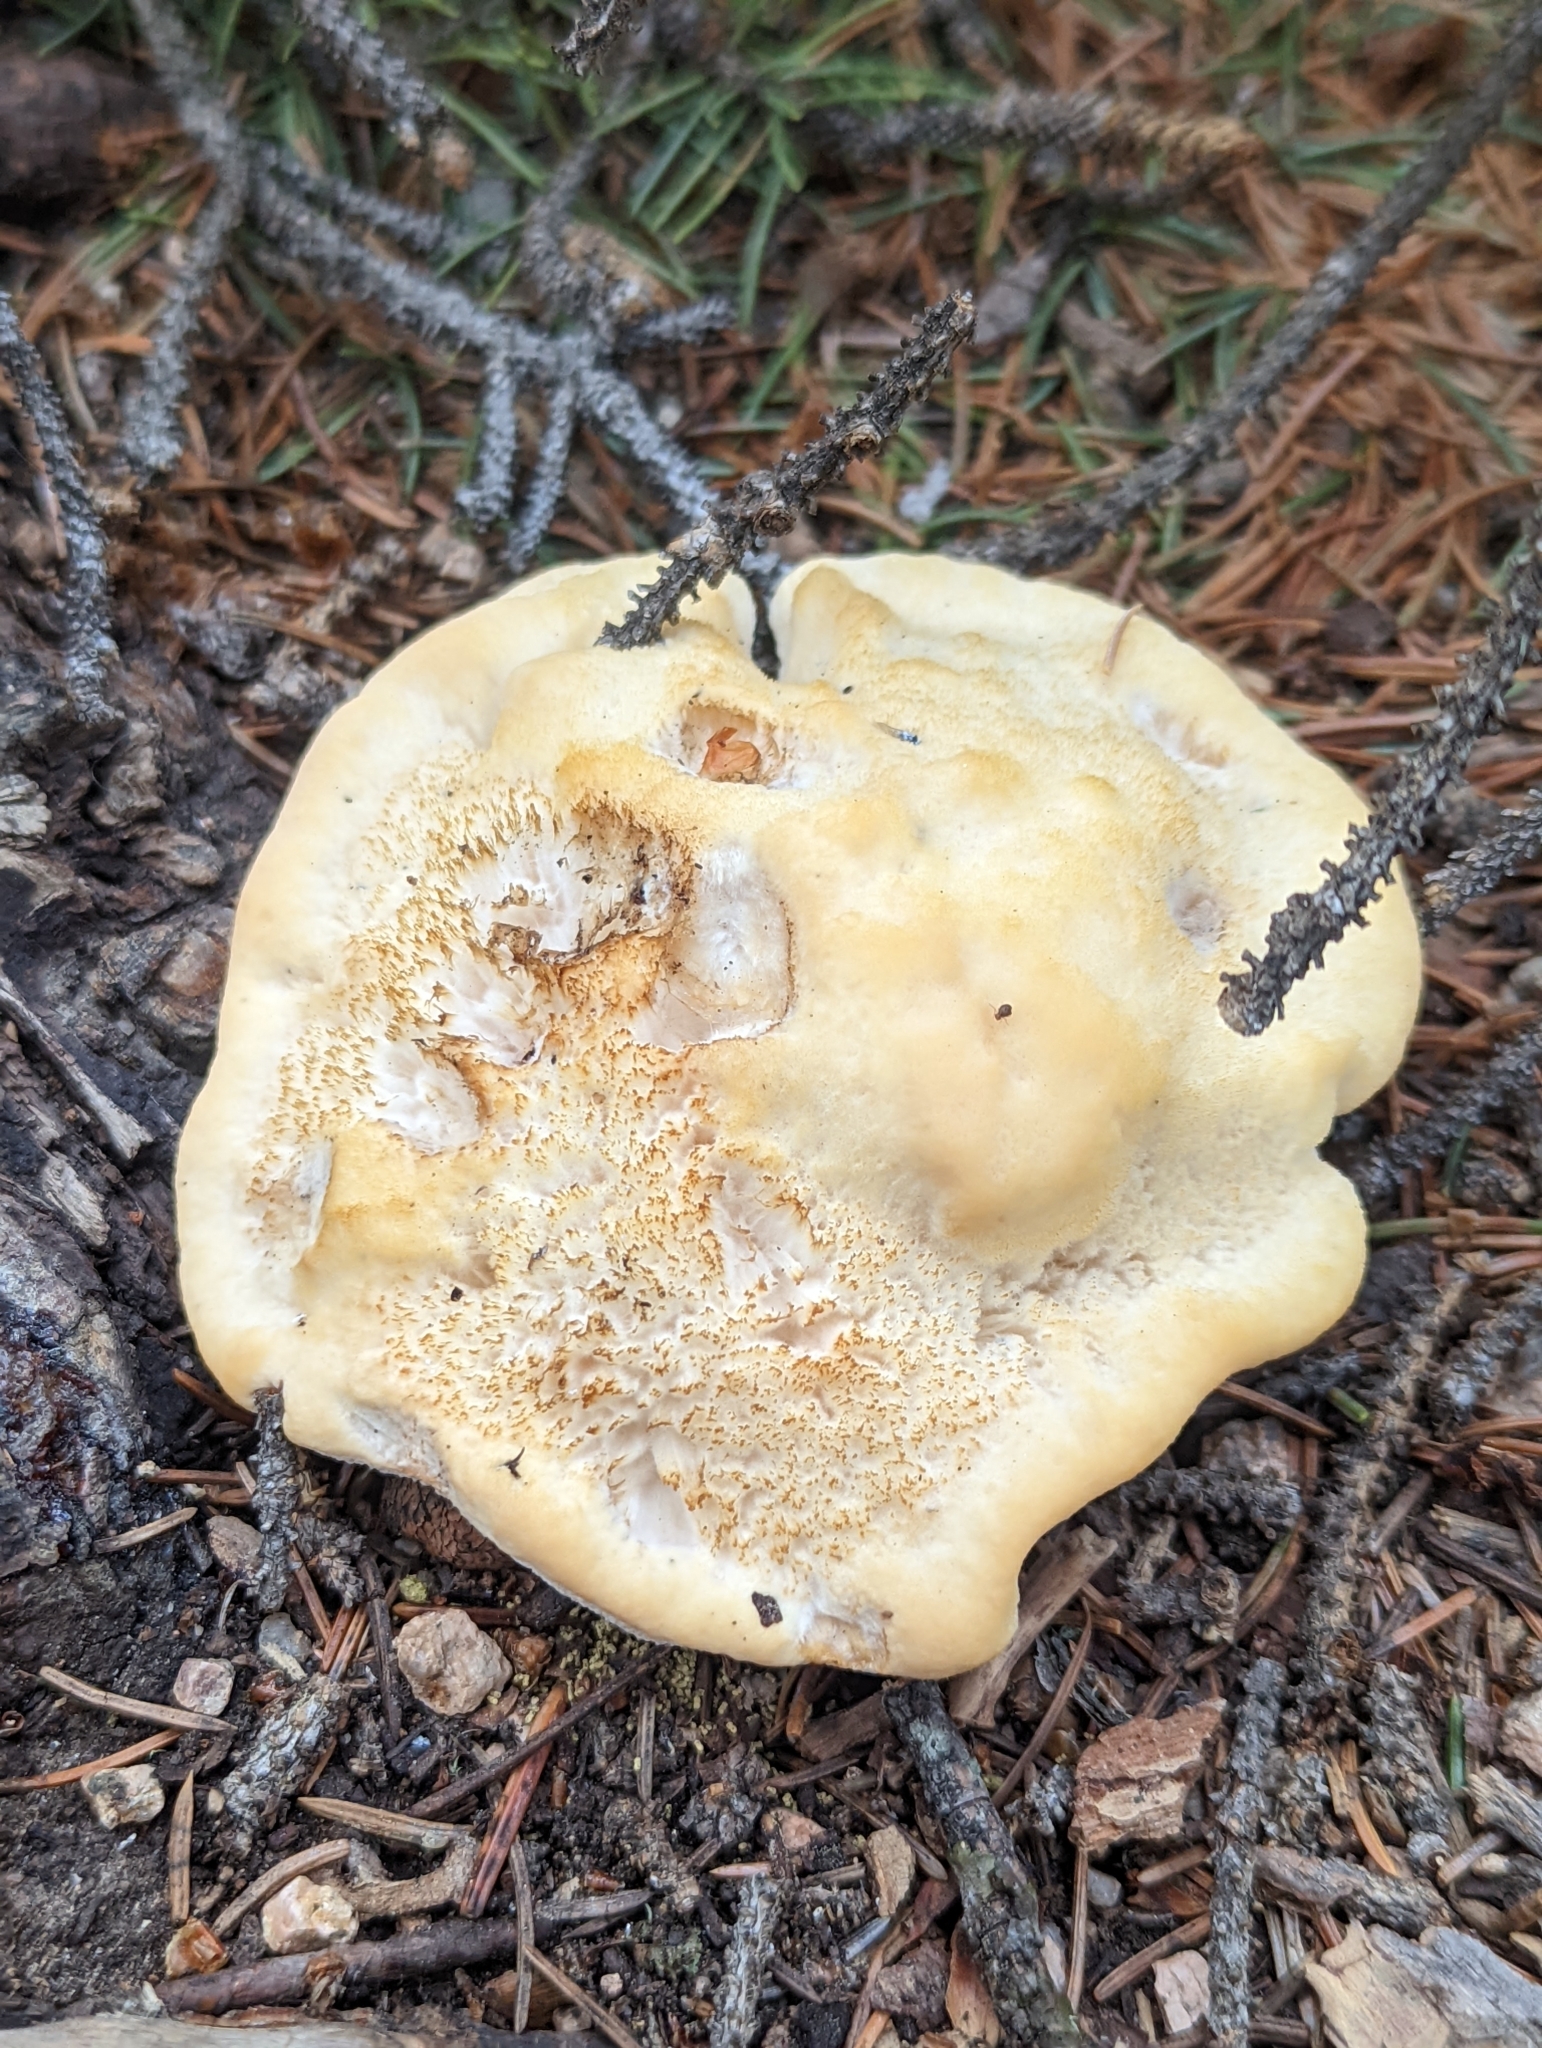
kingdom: Fungi
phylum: Basidiomycota
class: Agaricomycetes
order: Russulales
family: Albatrellaceae
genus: Albatrellus
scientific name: Albatrellus ovinus
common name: Forest lamb
